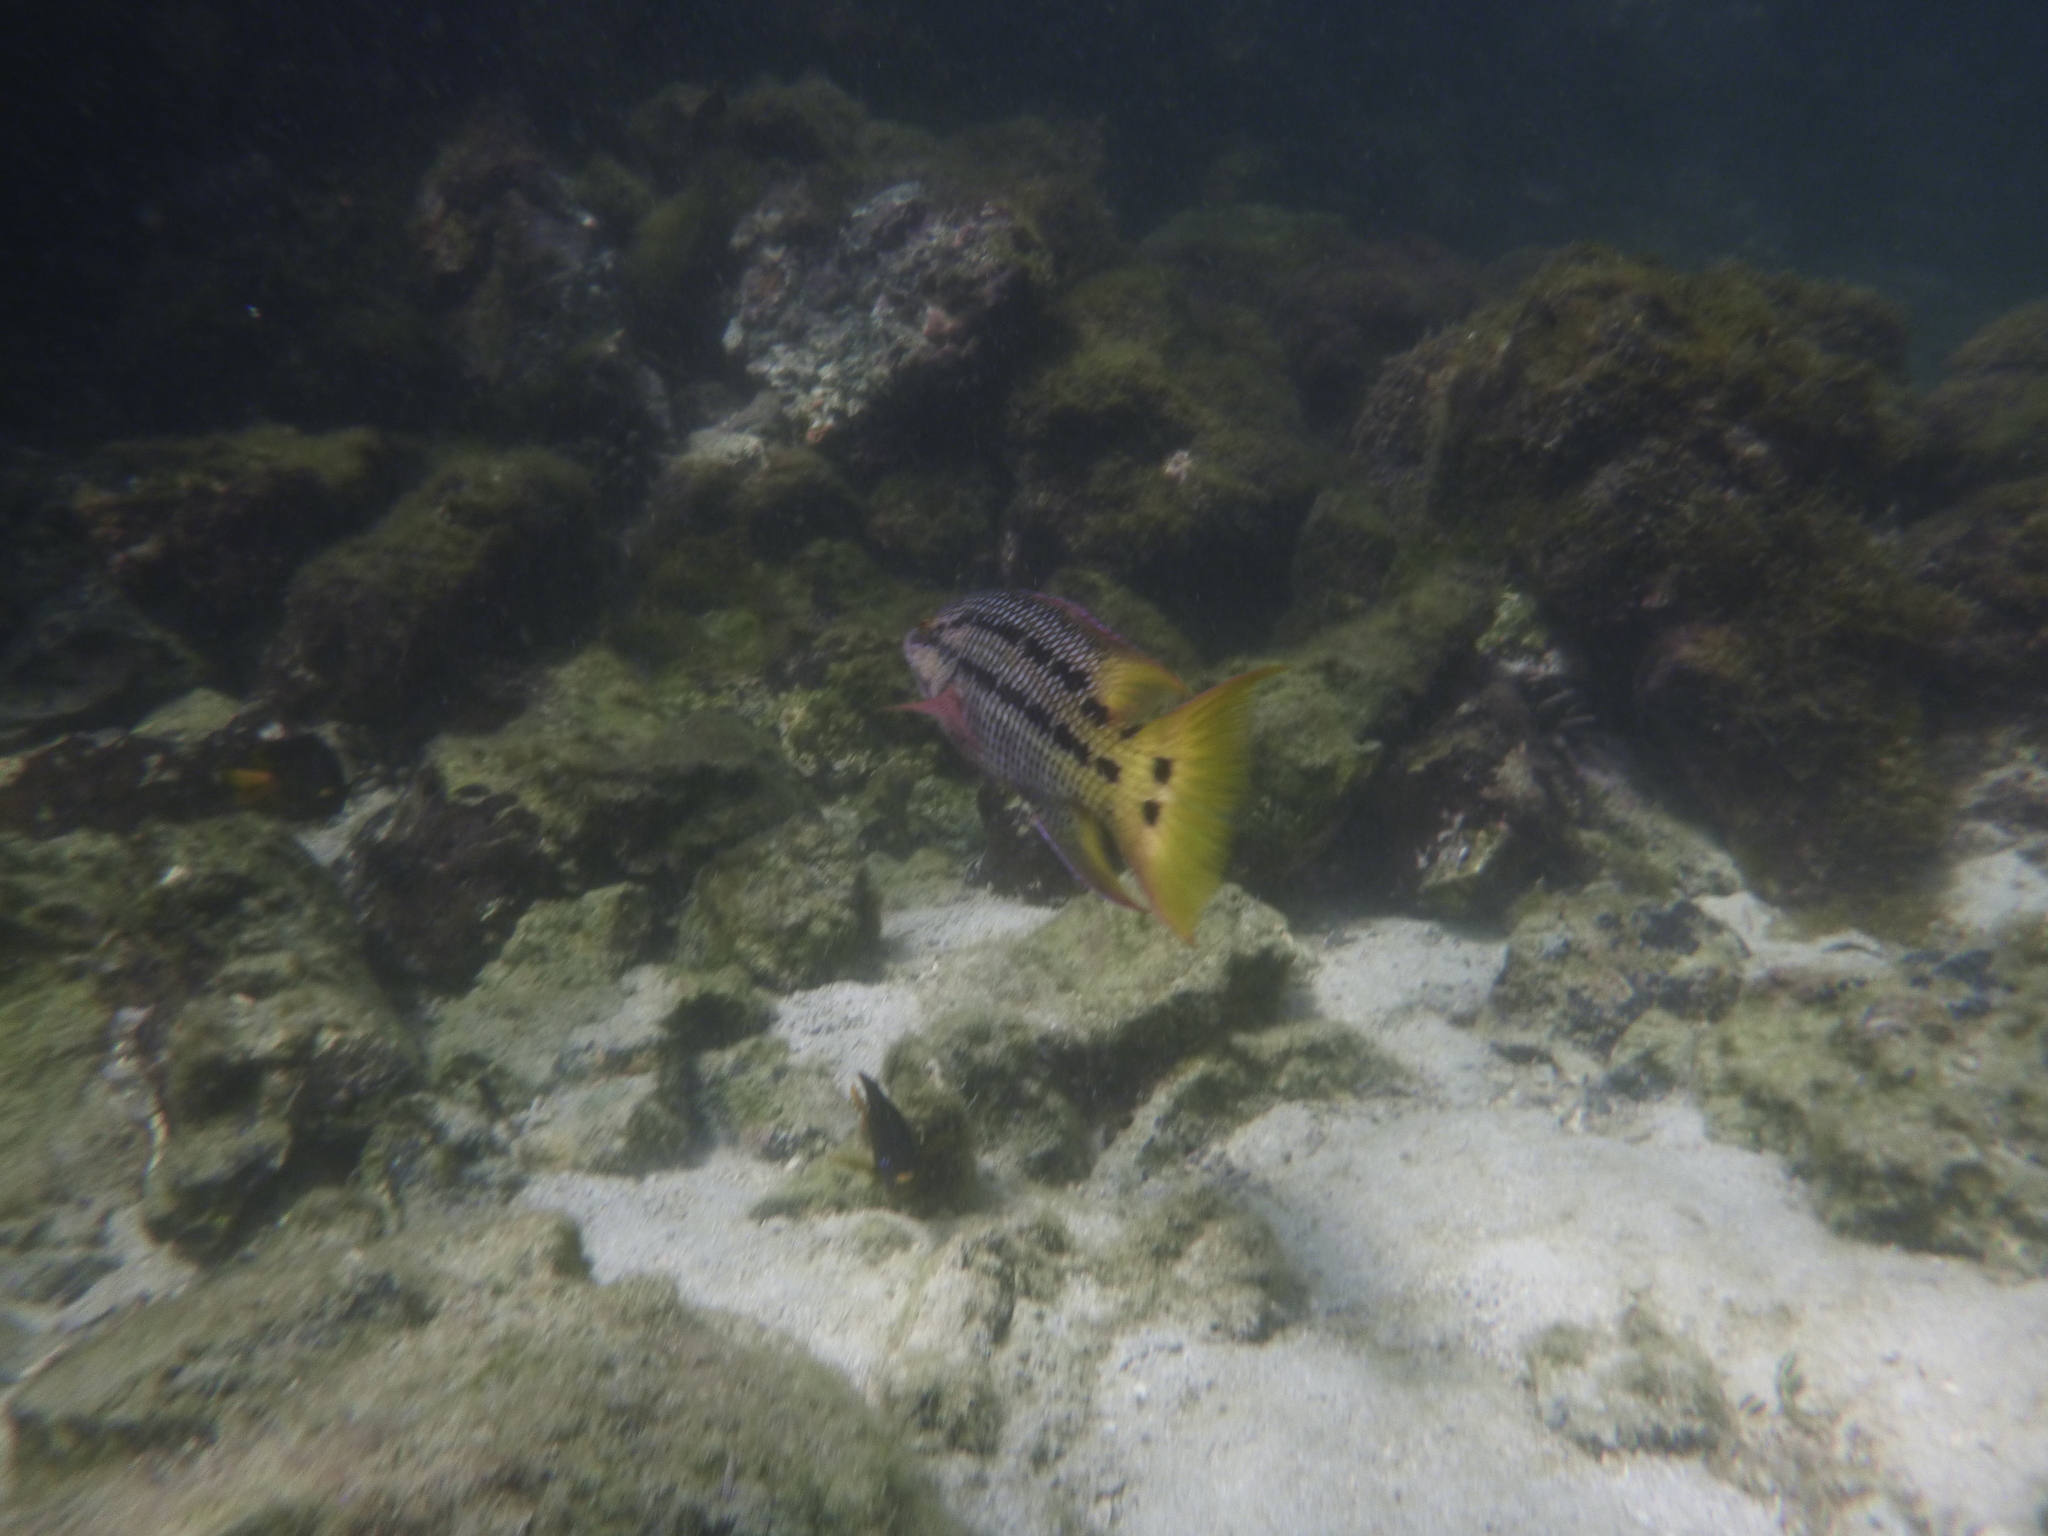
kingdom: Animalia
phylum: Chordata
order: Perciformes
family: Labridae
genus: Bodianus
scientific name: Bodianus diplotaenia
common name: Mexican hogfish
